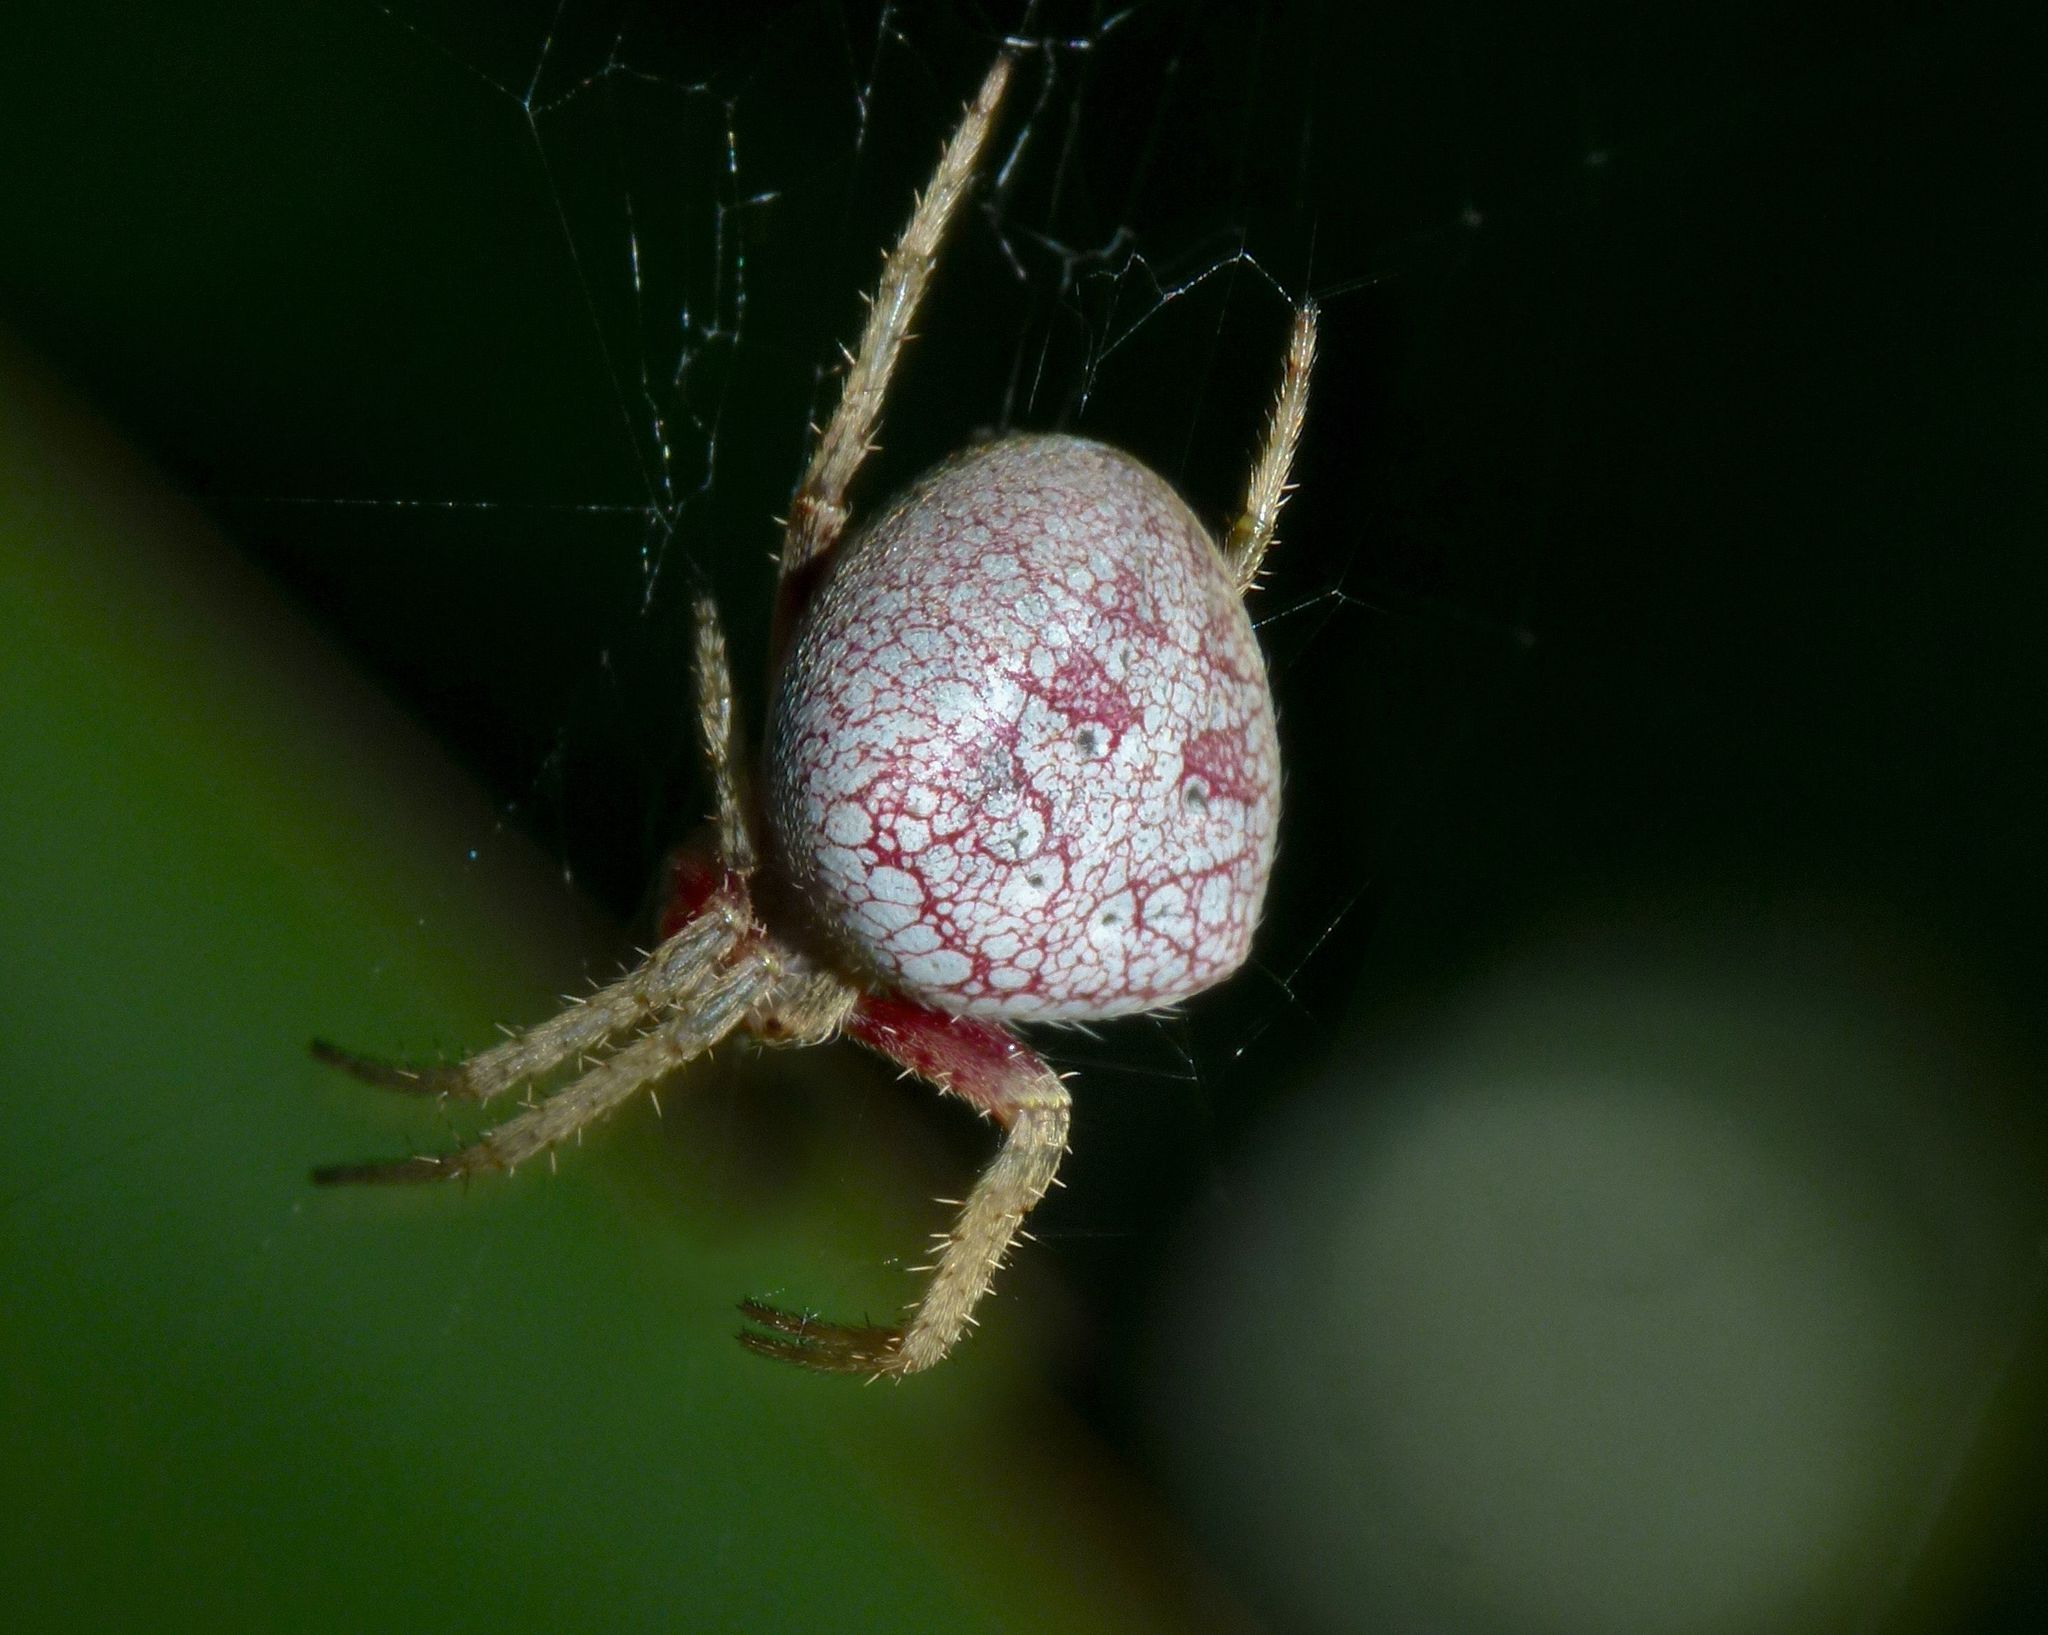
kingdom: Animalia
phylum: Arthropoda
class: Arachnida
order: Araneae
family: Araneidae
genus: Zealaranea
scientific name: Zealaranea prina
